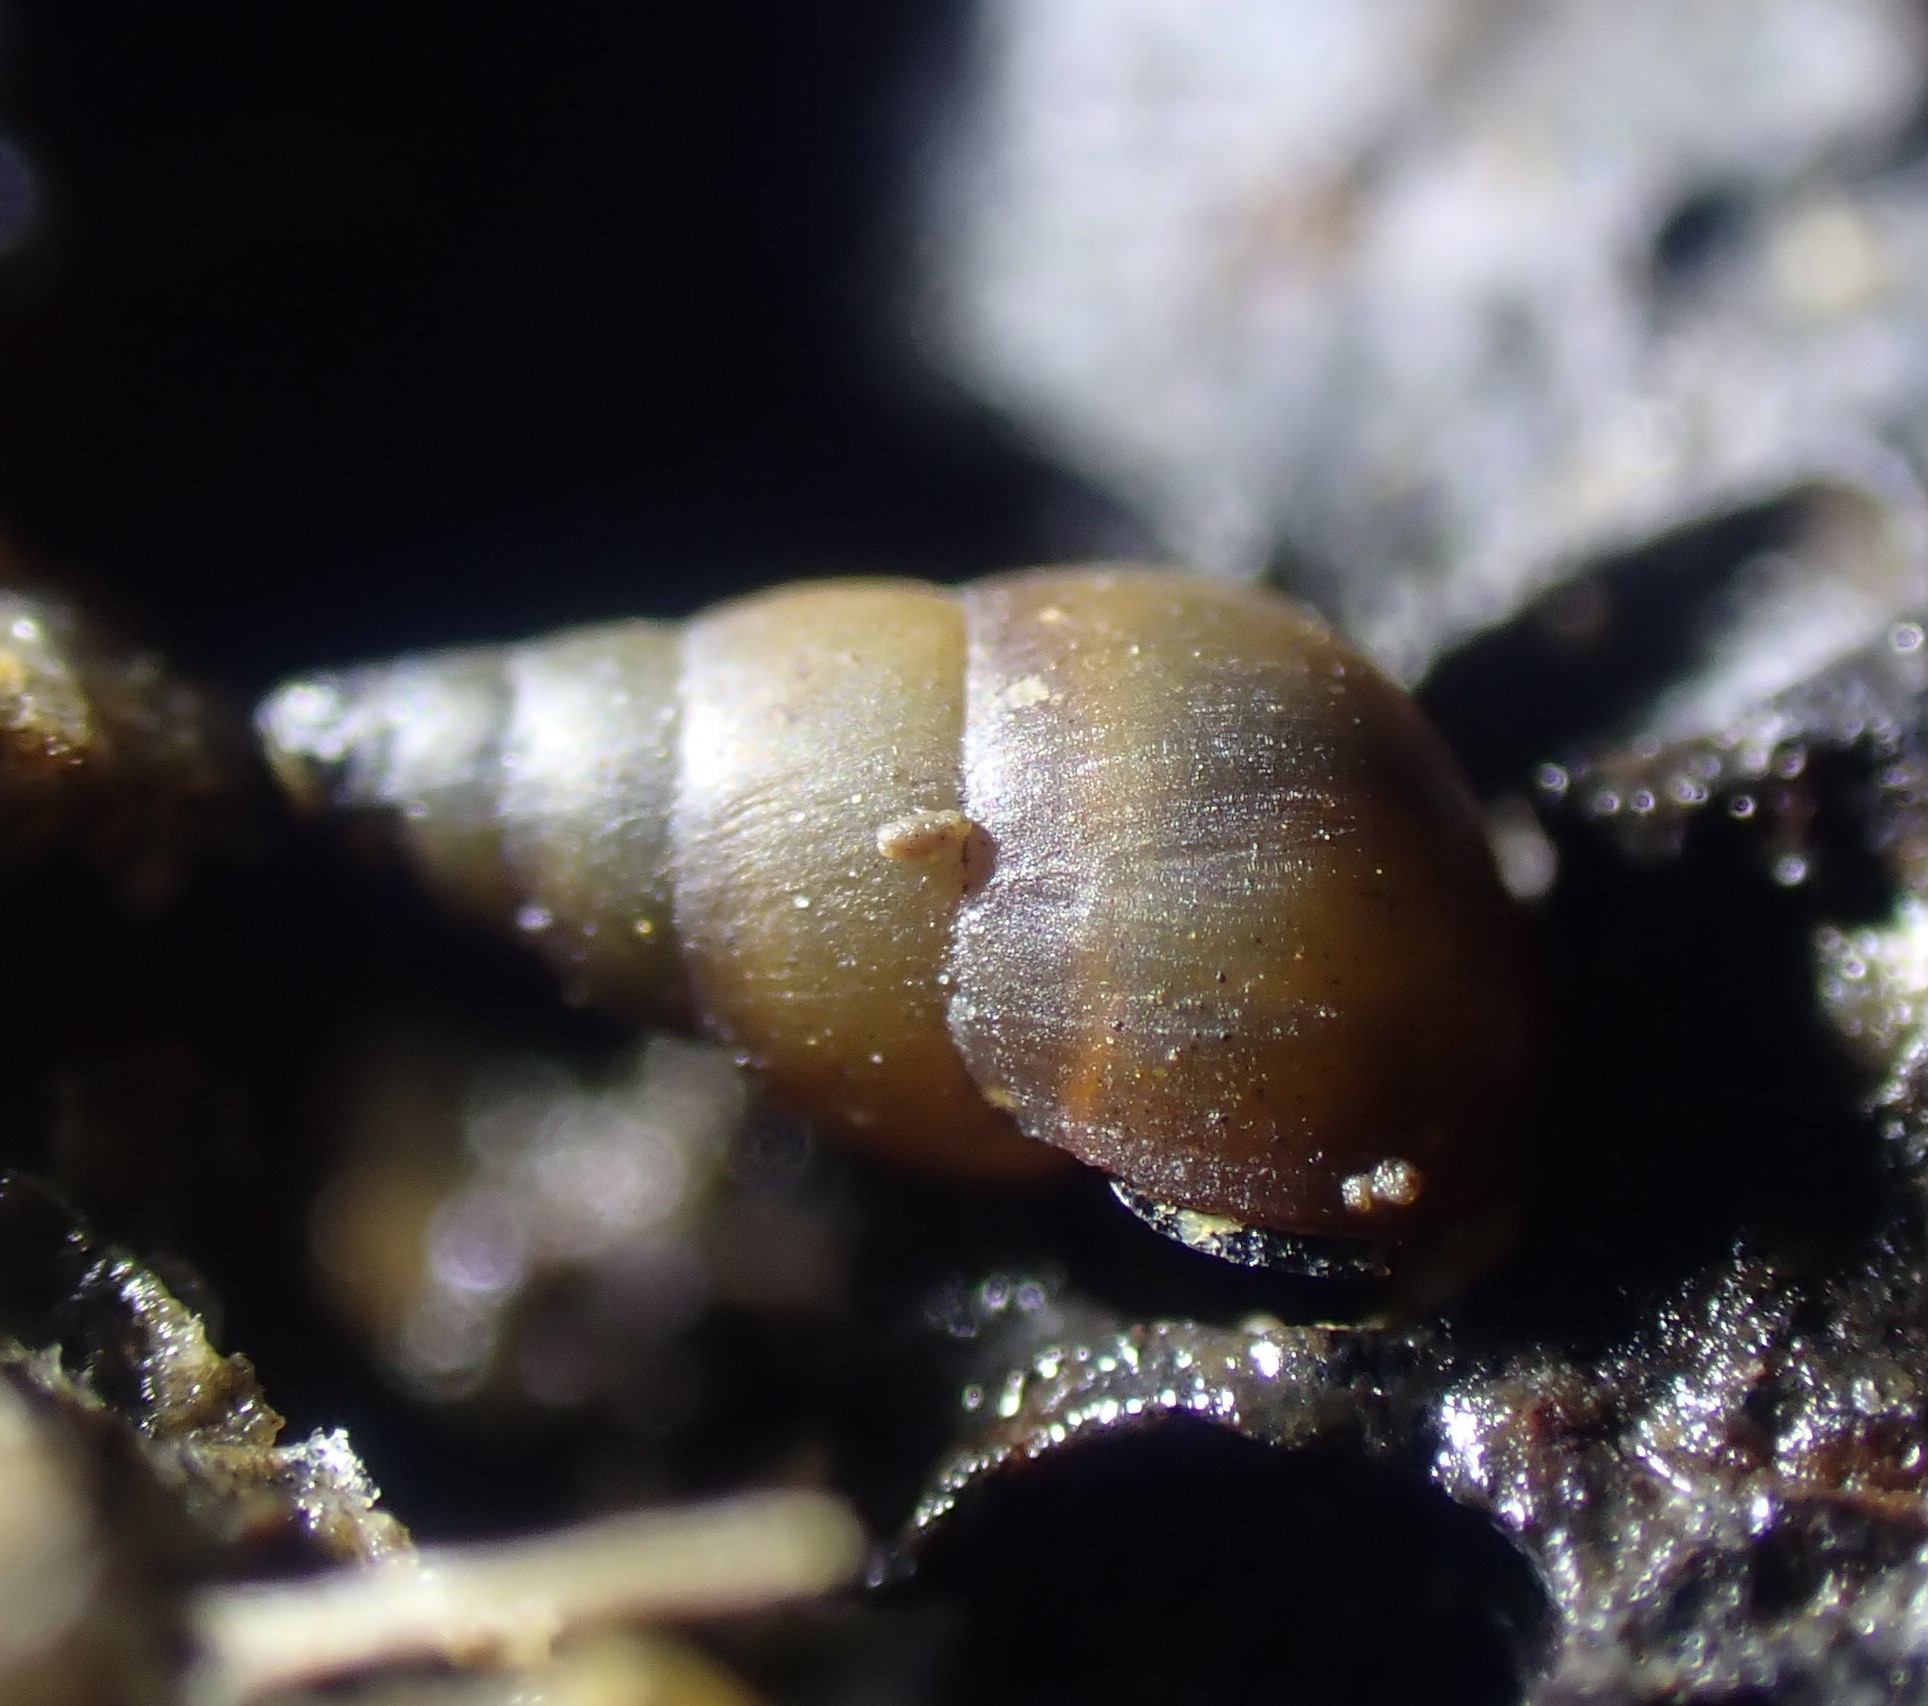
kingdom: Animalia
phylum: Mollusca
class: Gastropoda
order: Littorinimorpha
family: Tateidae
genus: Potamopyrgus
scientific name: Potamopyrgus estuarinus
